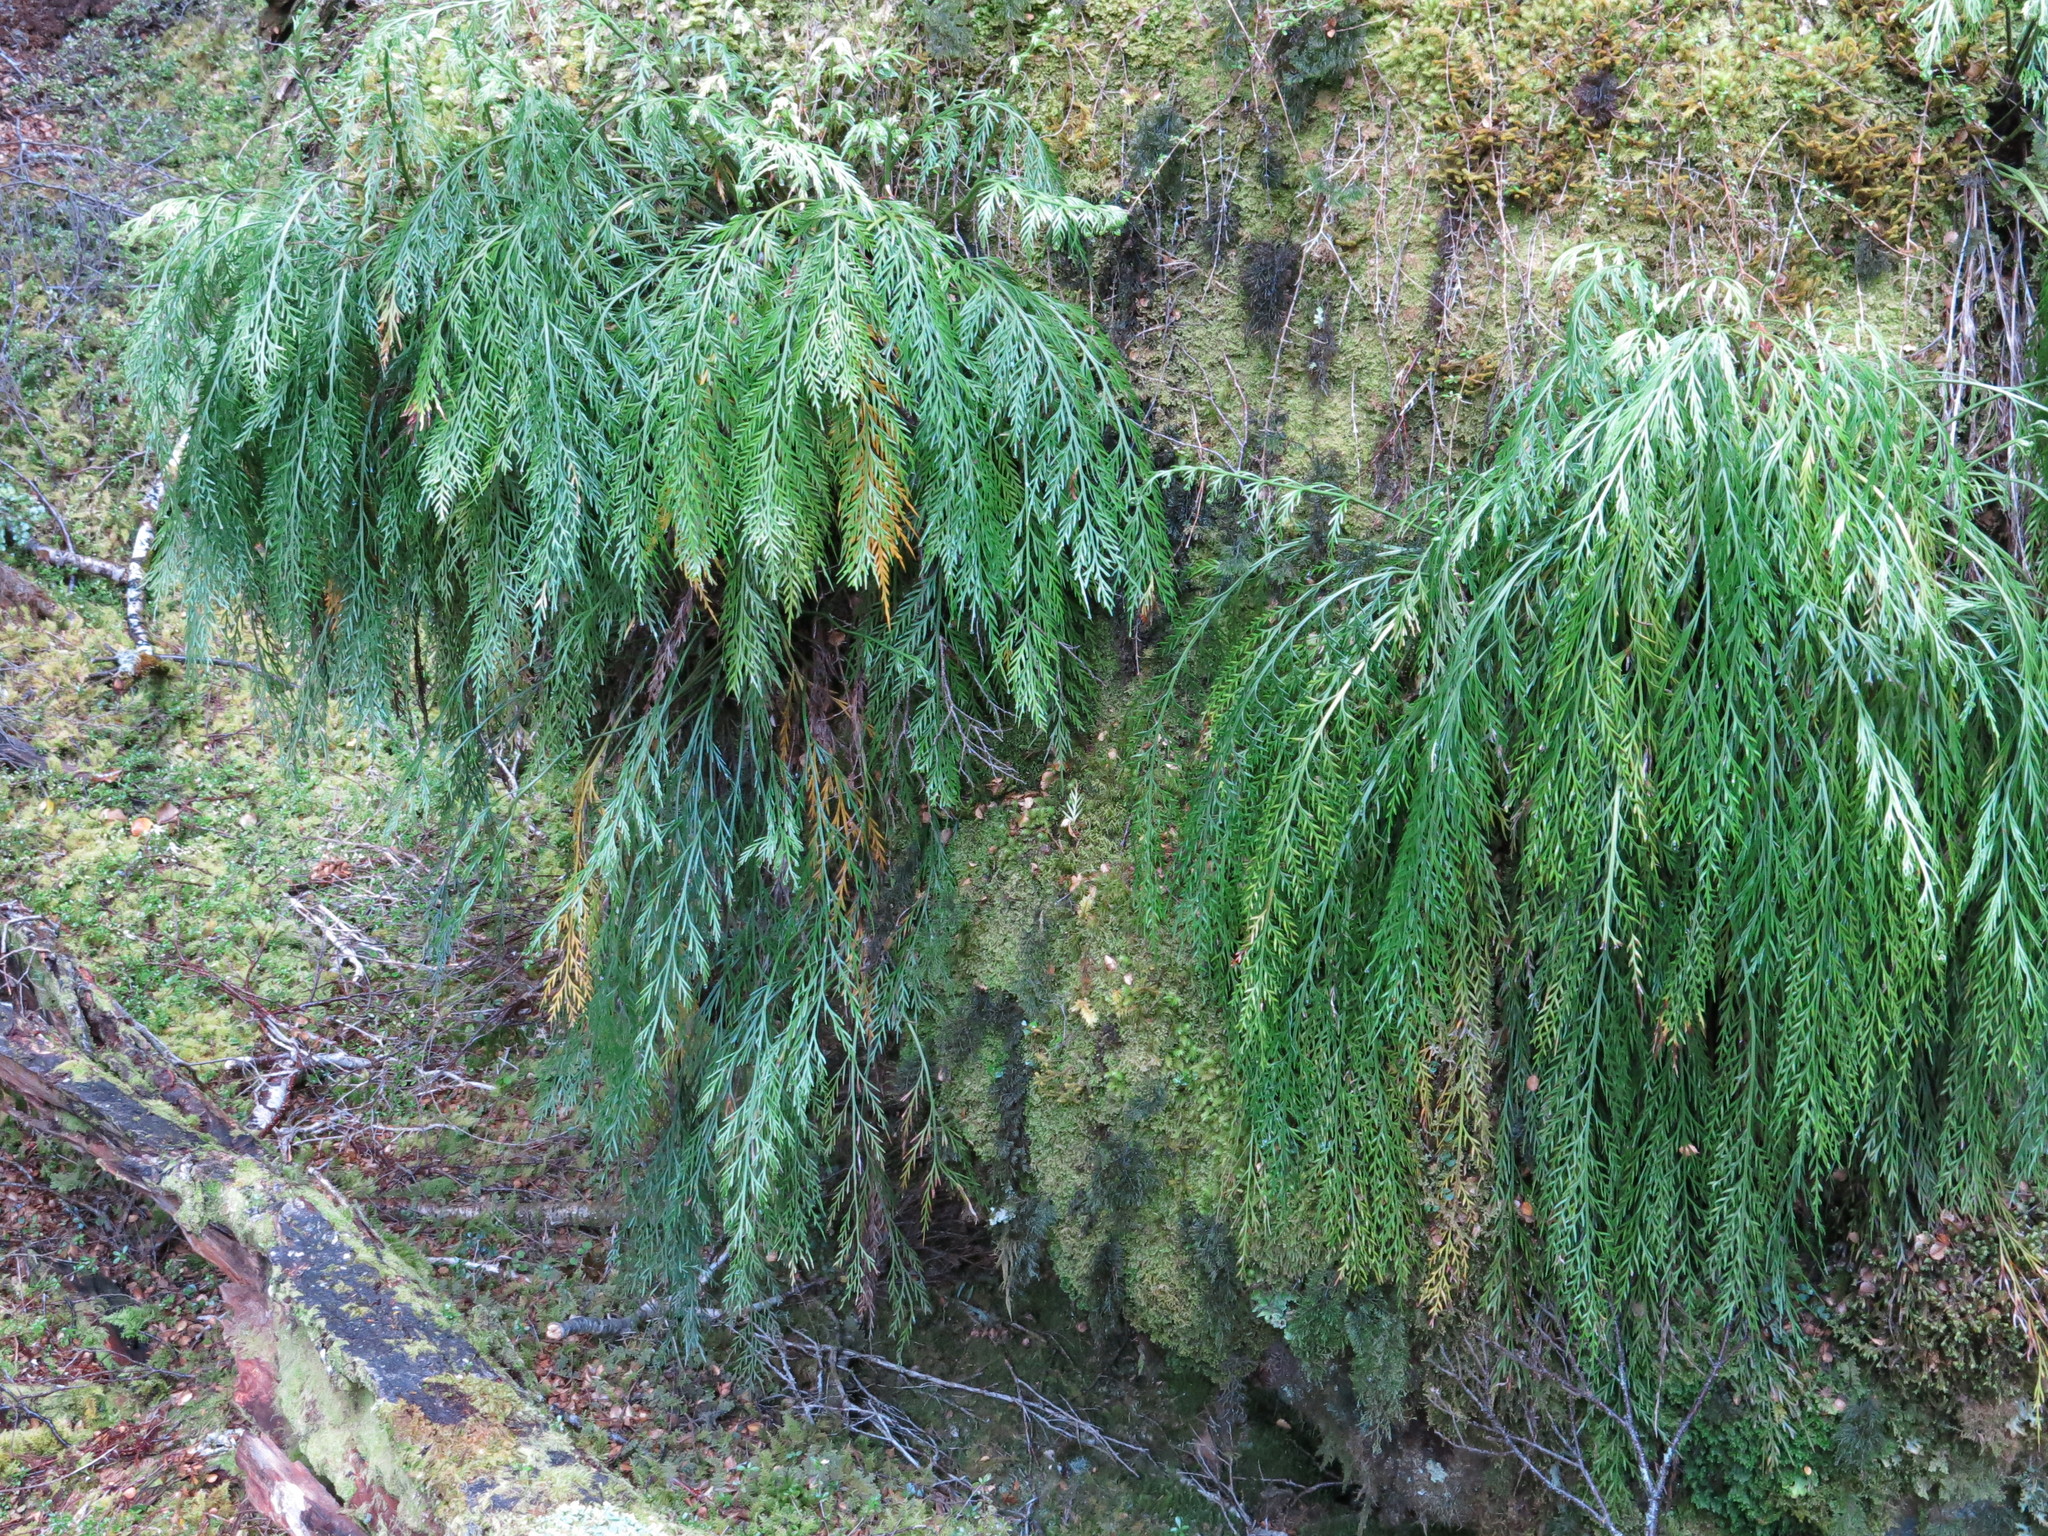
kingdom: Plantae
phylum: Tracheophyta
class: Polypodiopsida
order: Polypodiales
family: Aspleniaceae
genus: Asplenium
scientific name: Asplenium flaccidum
